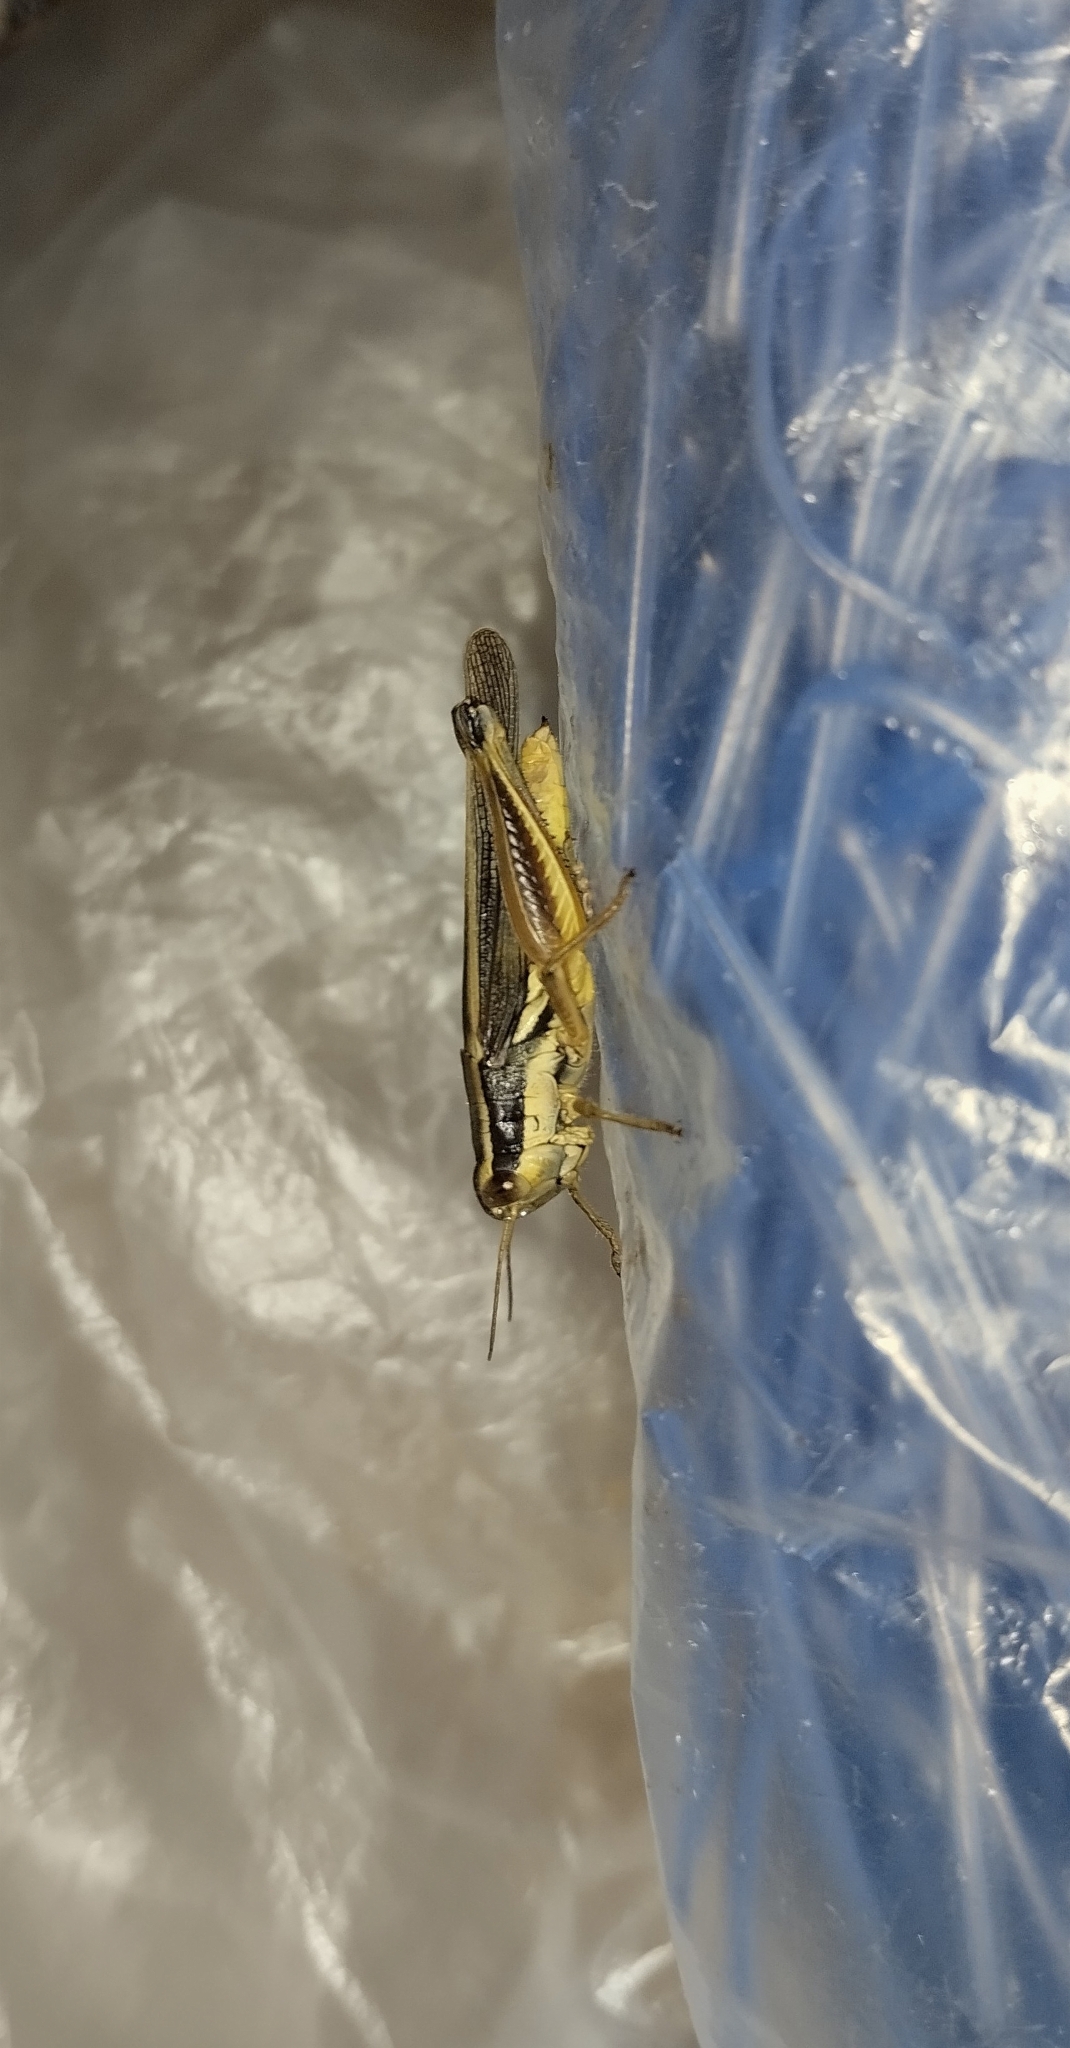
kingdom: Animalia
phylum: Arthropoda
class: Insecta
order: Orthoptera
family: Acrididae
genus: Dichroplus
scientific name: Dichroplus elongatus
